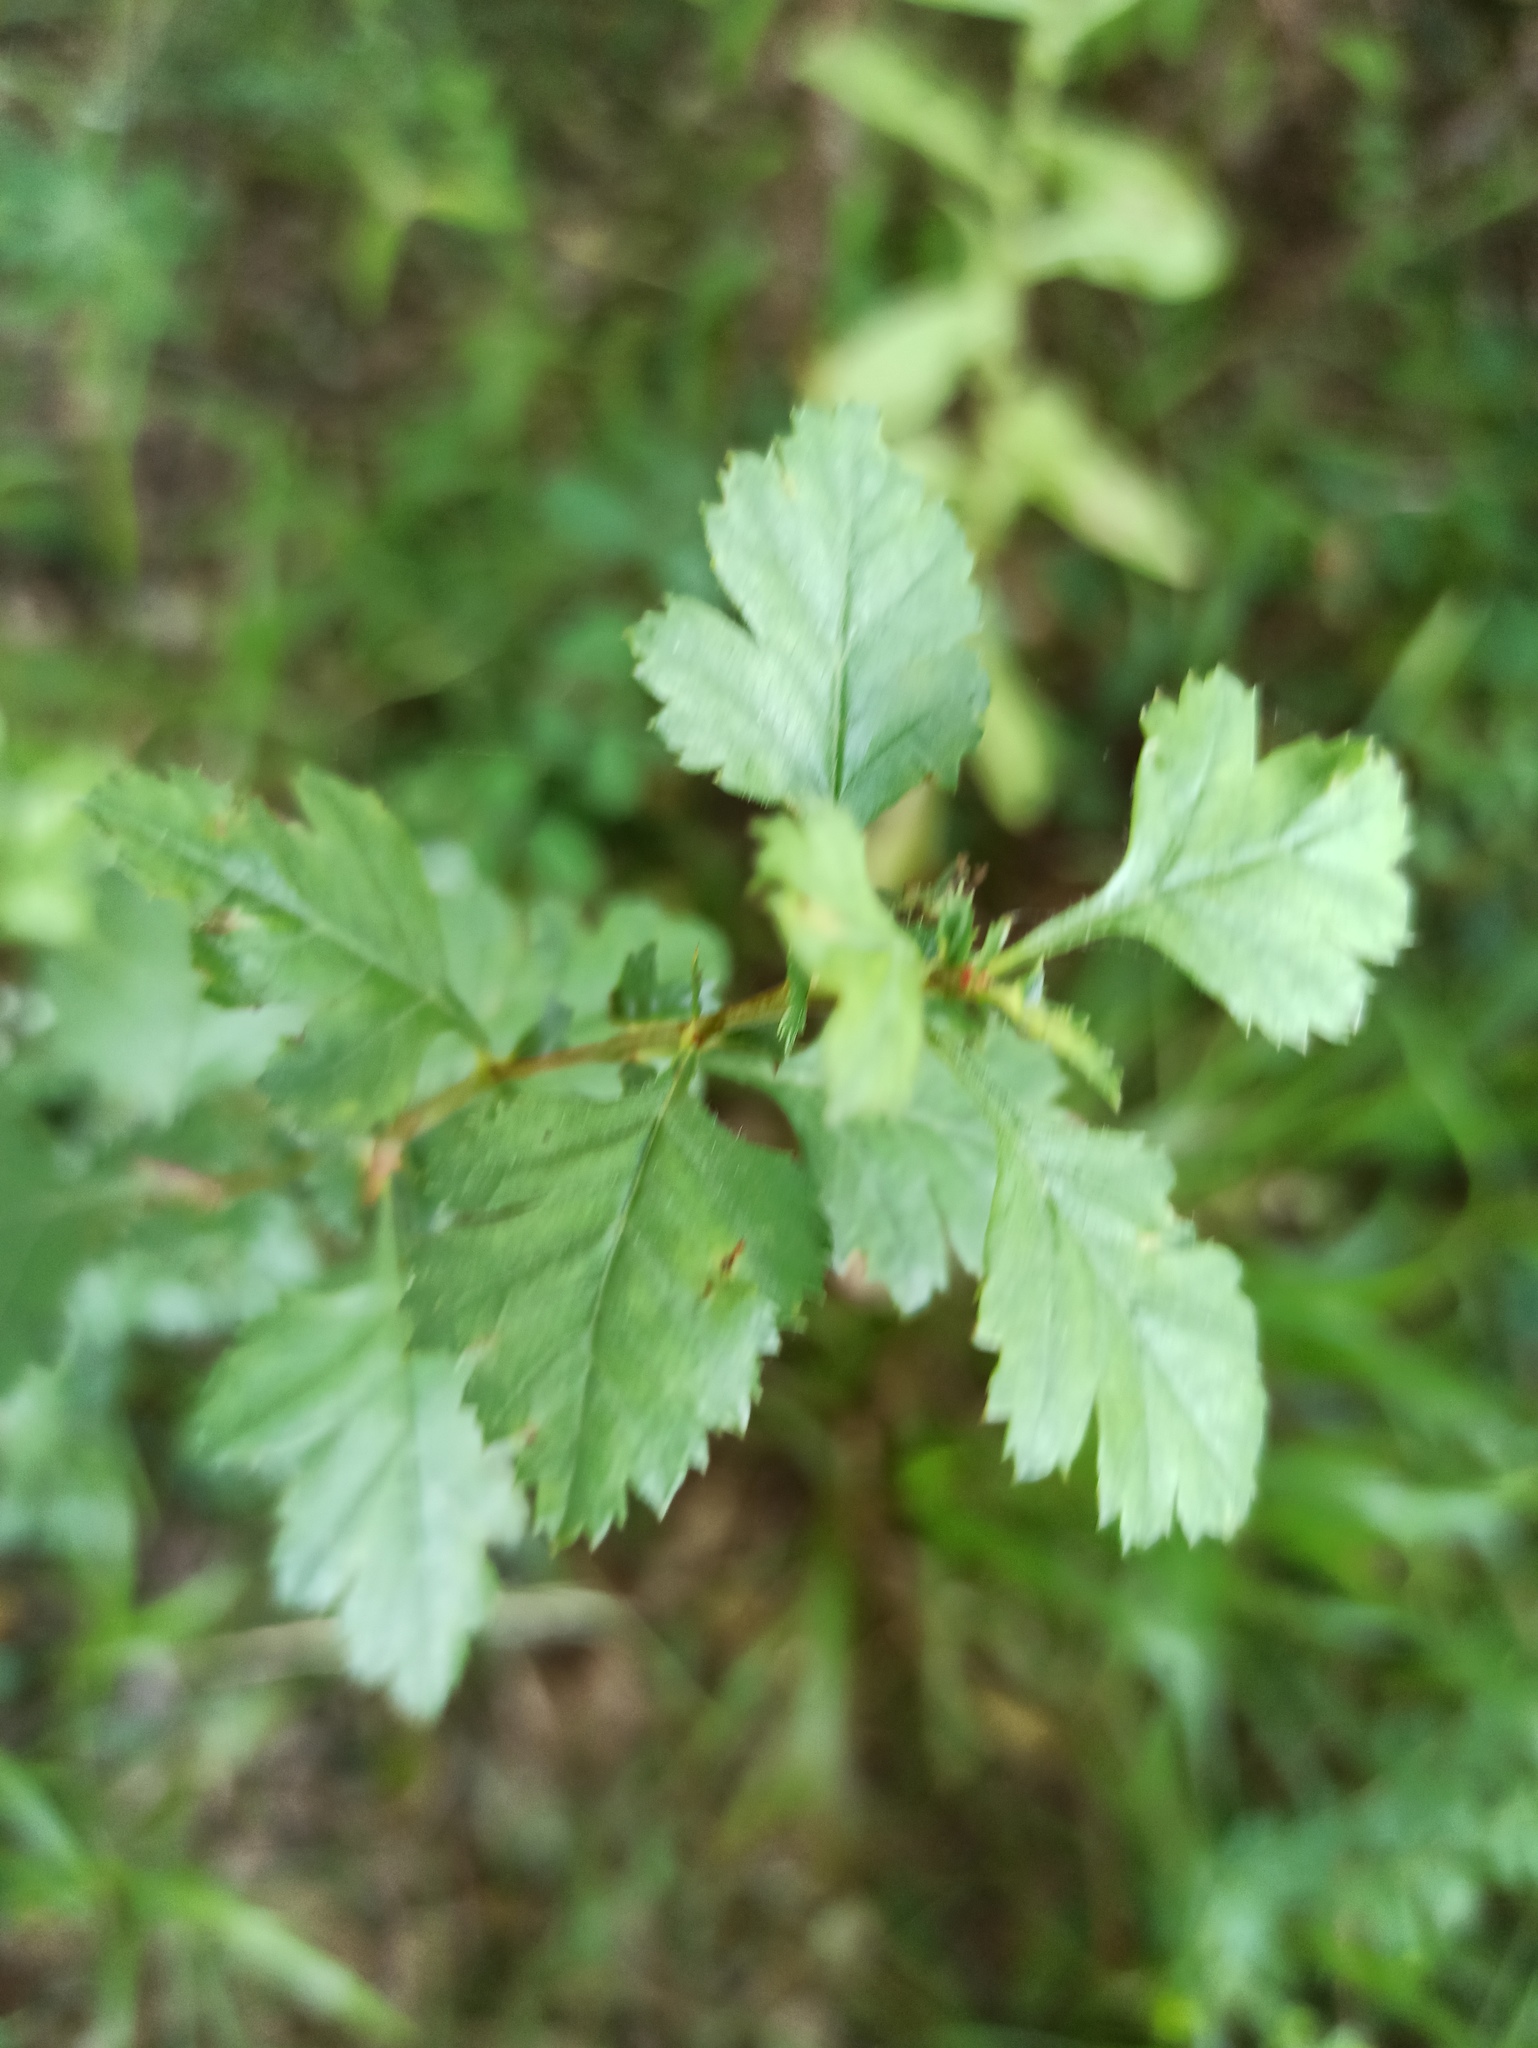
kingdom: Plantae
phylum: Tracheophyta
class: Magnoliopsida
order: Rosales
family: Rosaceae
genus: Crataegus
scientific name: Crataegus monogyna
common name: Hawthorn
